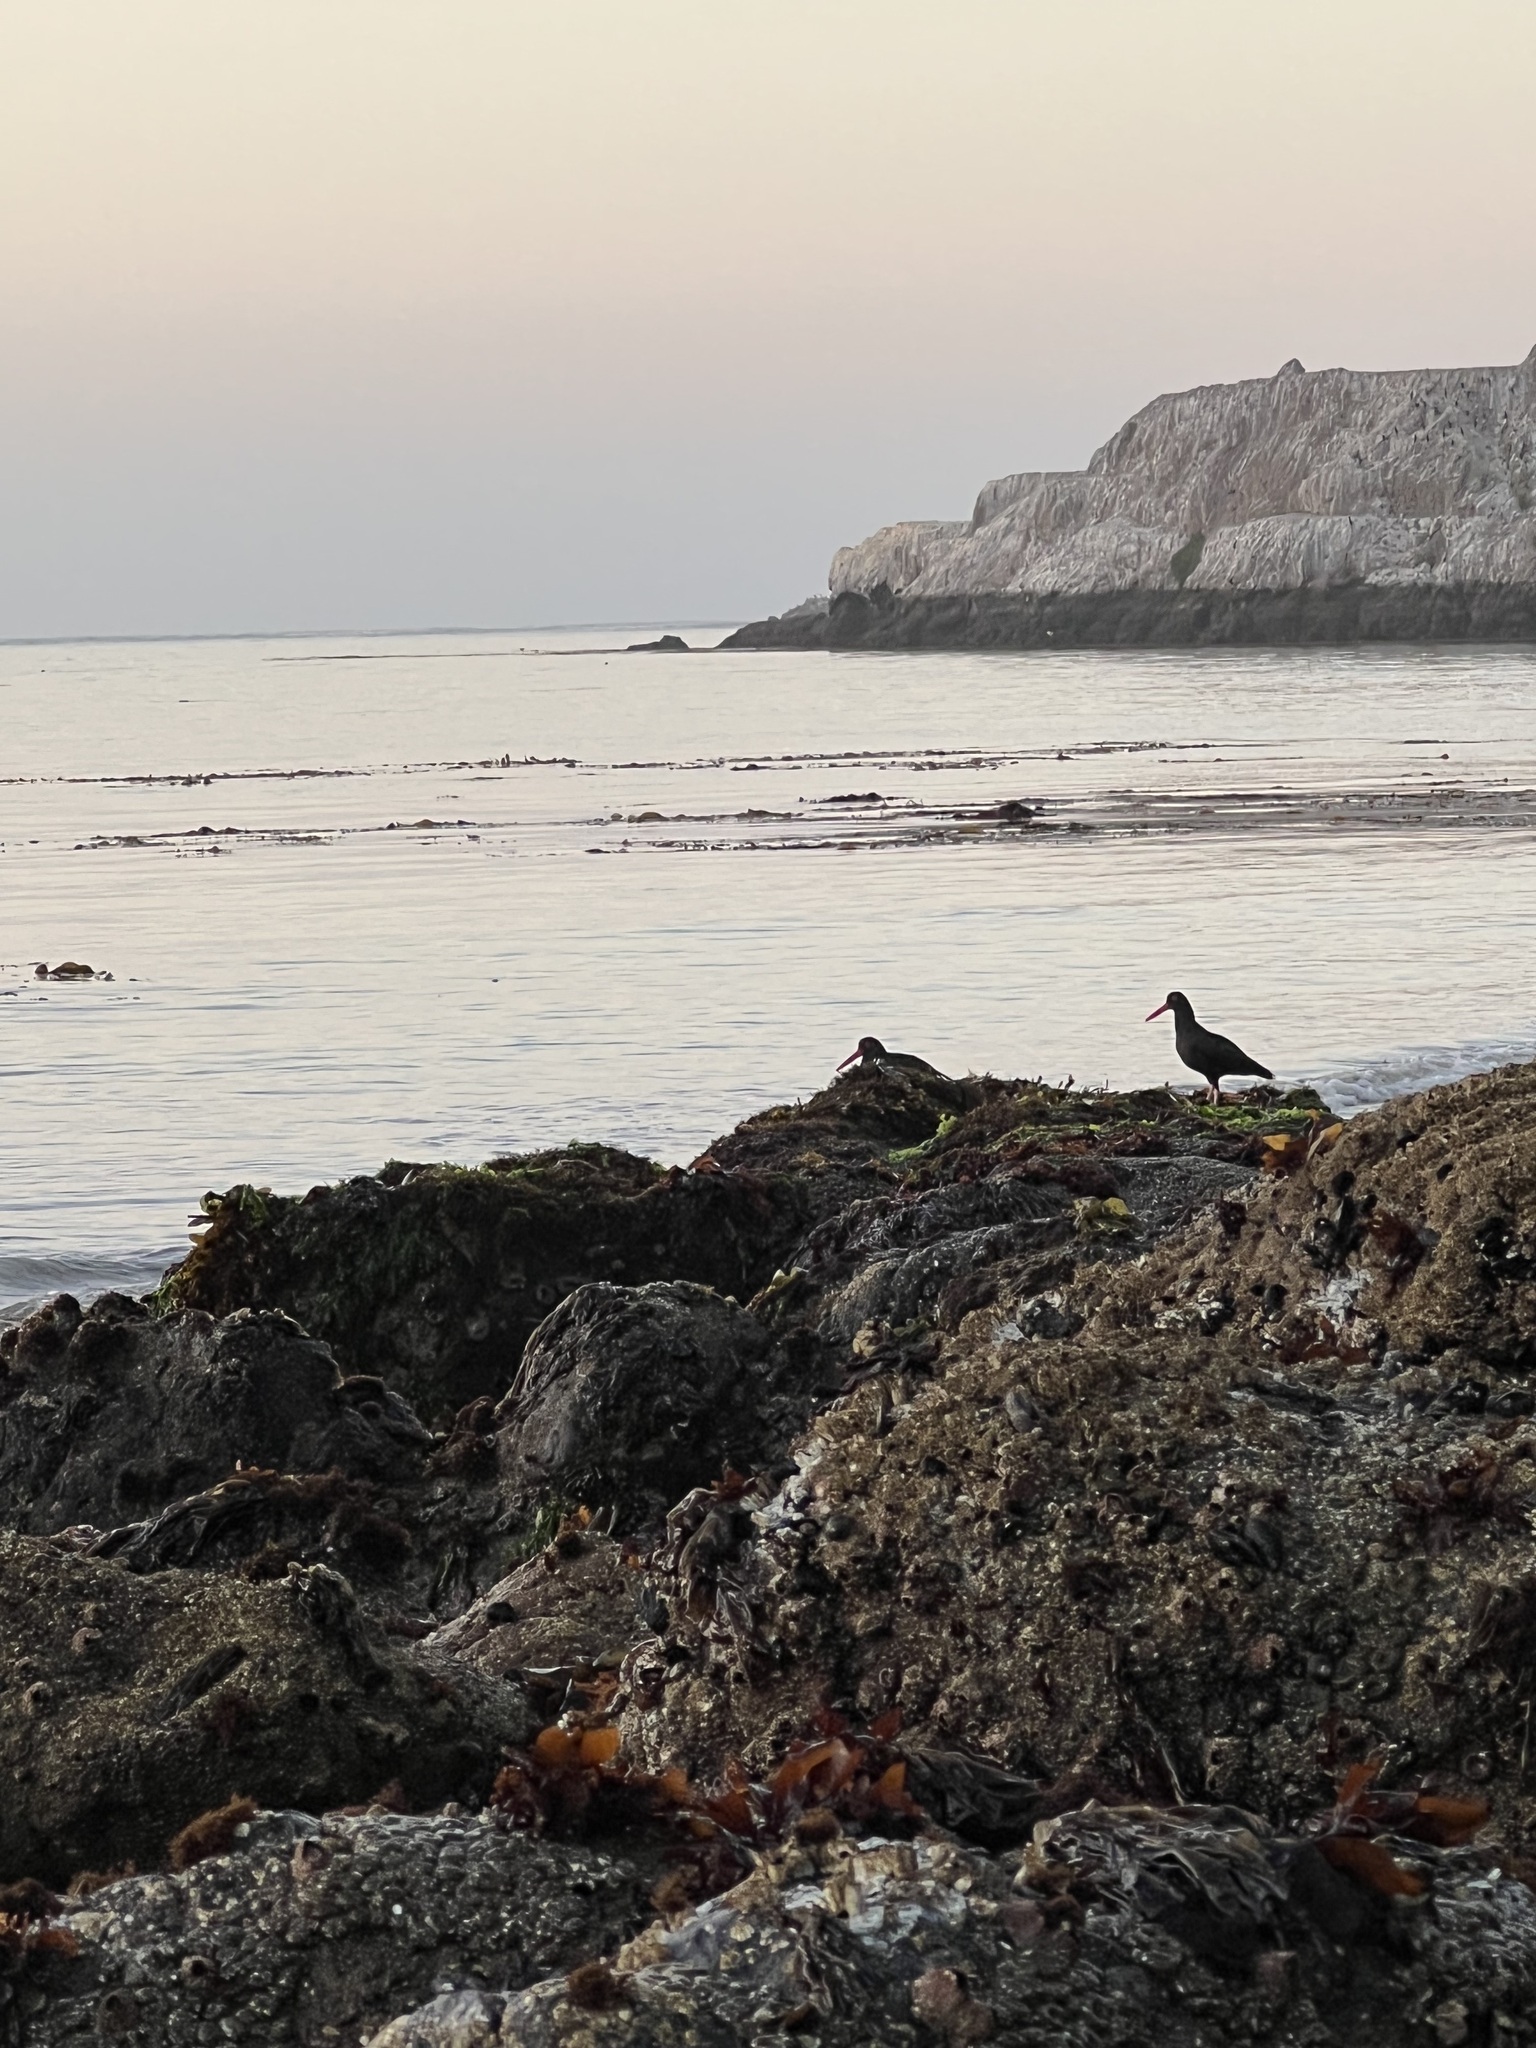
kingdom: Animalia
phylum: Chordata
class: Aves
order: Charadriiformes
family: Haematopodidae
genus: Haematopus
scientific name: Haematopus bachmani
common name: Black oystercatcher
